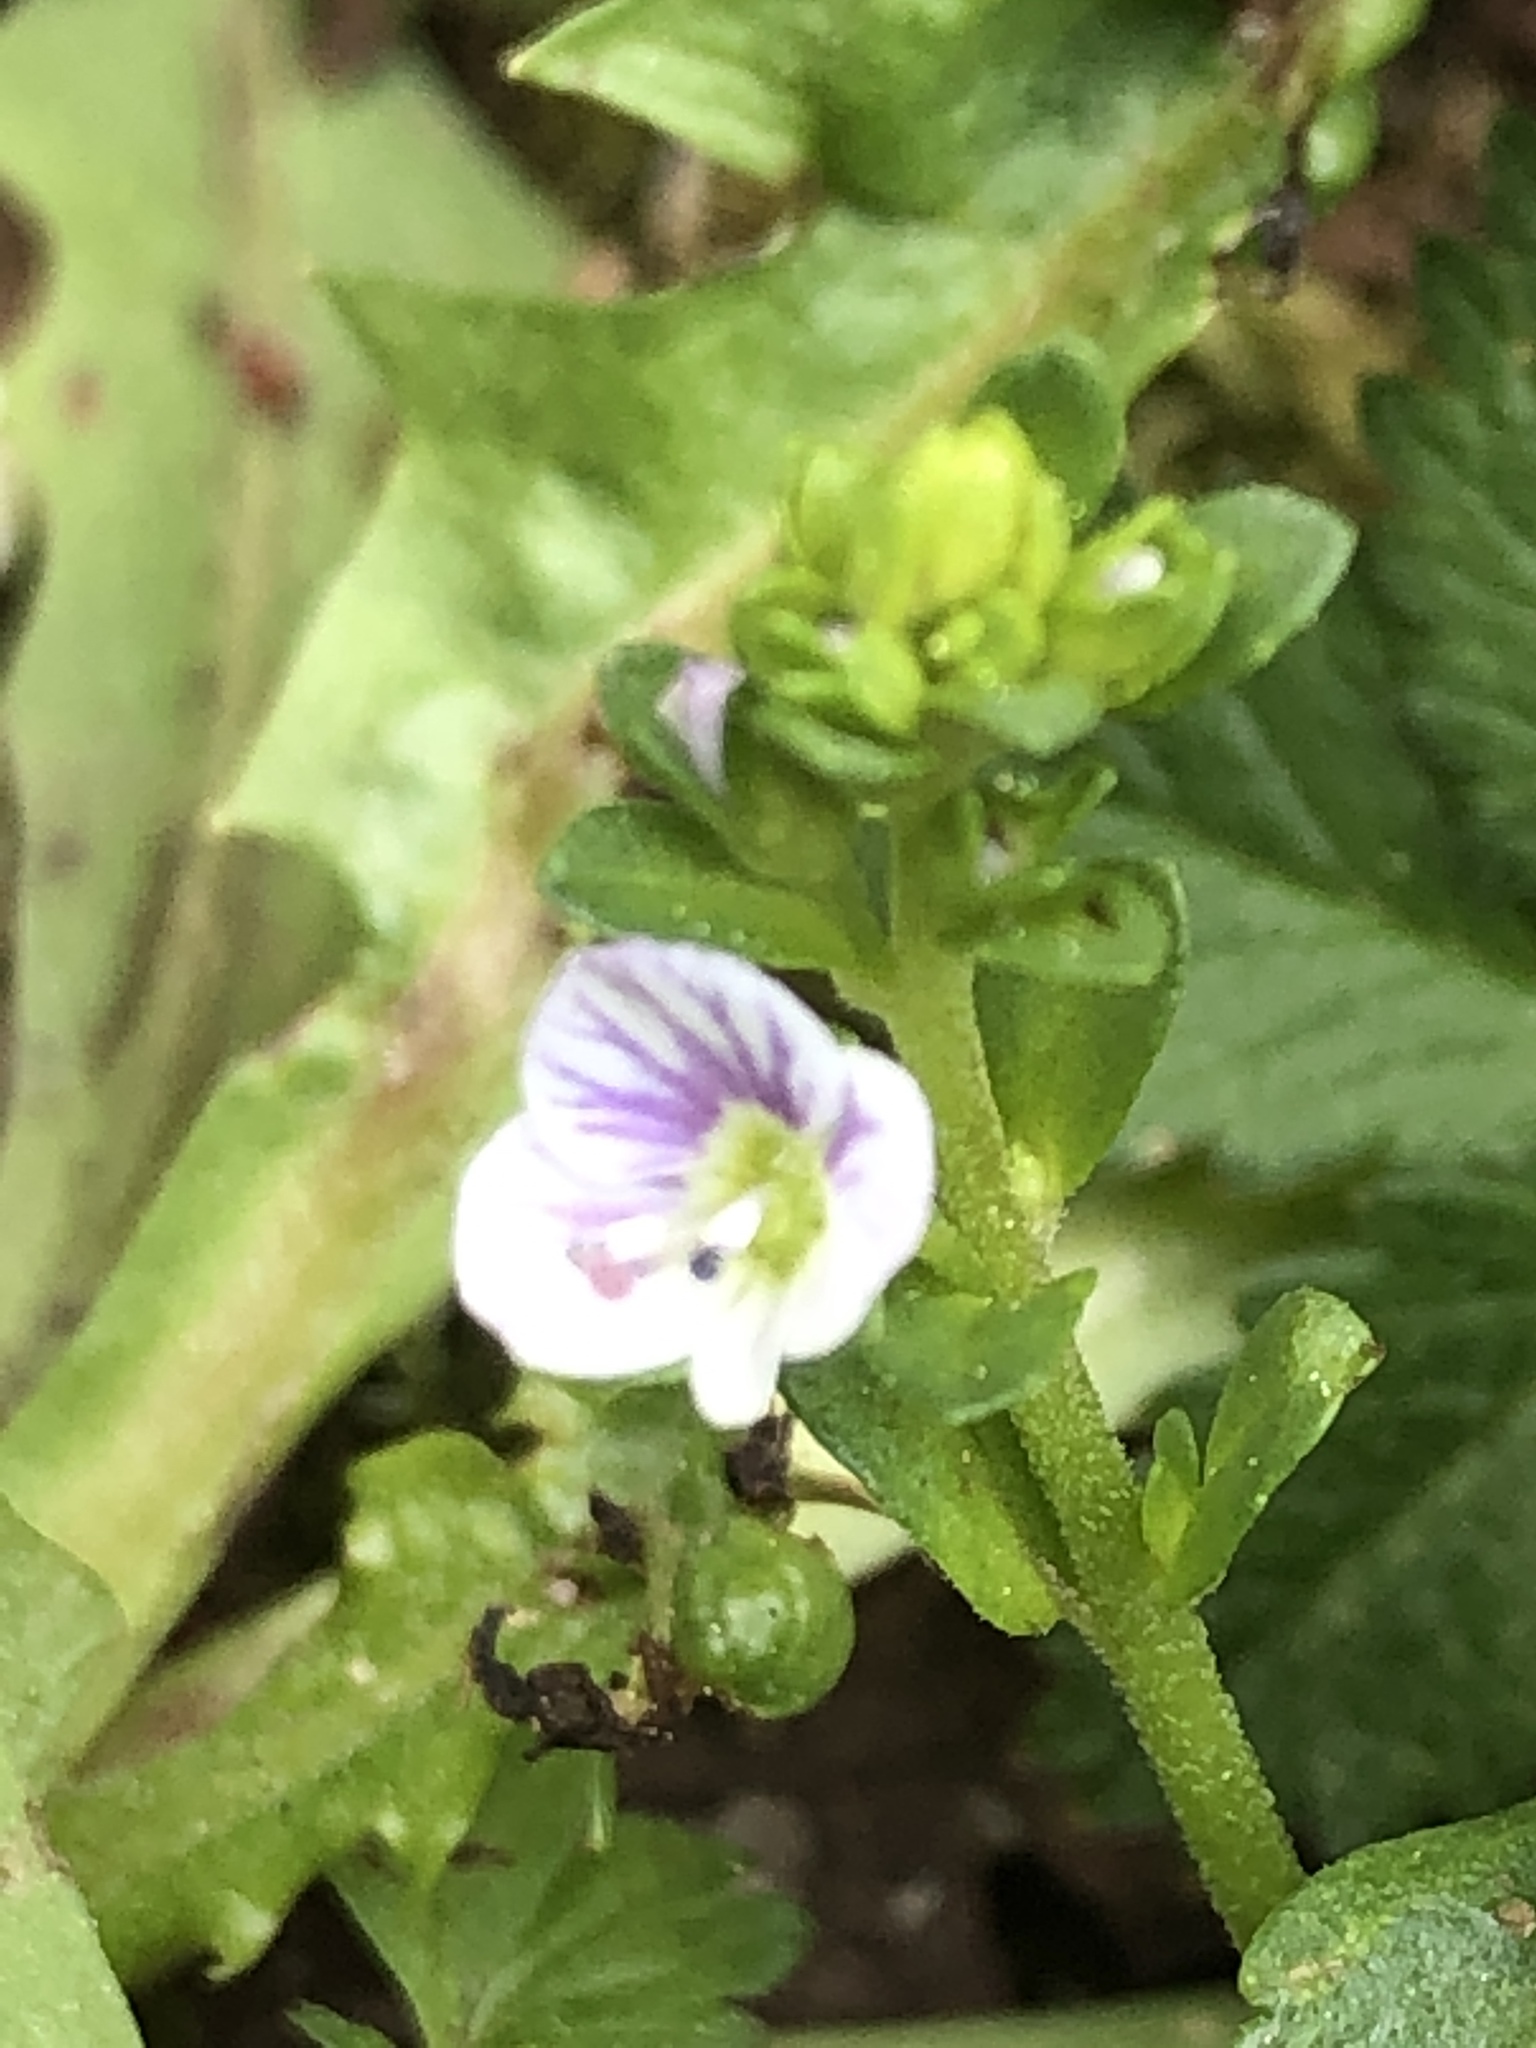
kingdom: Plantae
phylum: Tracheophyta
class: Magnoliopsida
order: Lamiales
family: Plantaginaceae
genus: Veronica
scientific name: Veronica serpyllifolia
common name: Thyme-leaved speedwell
